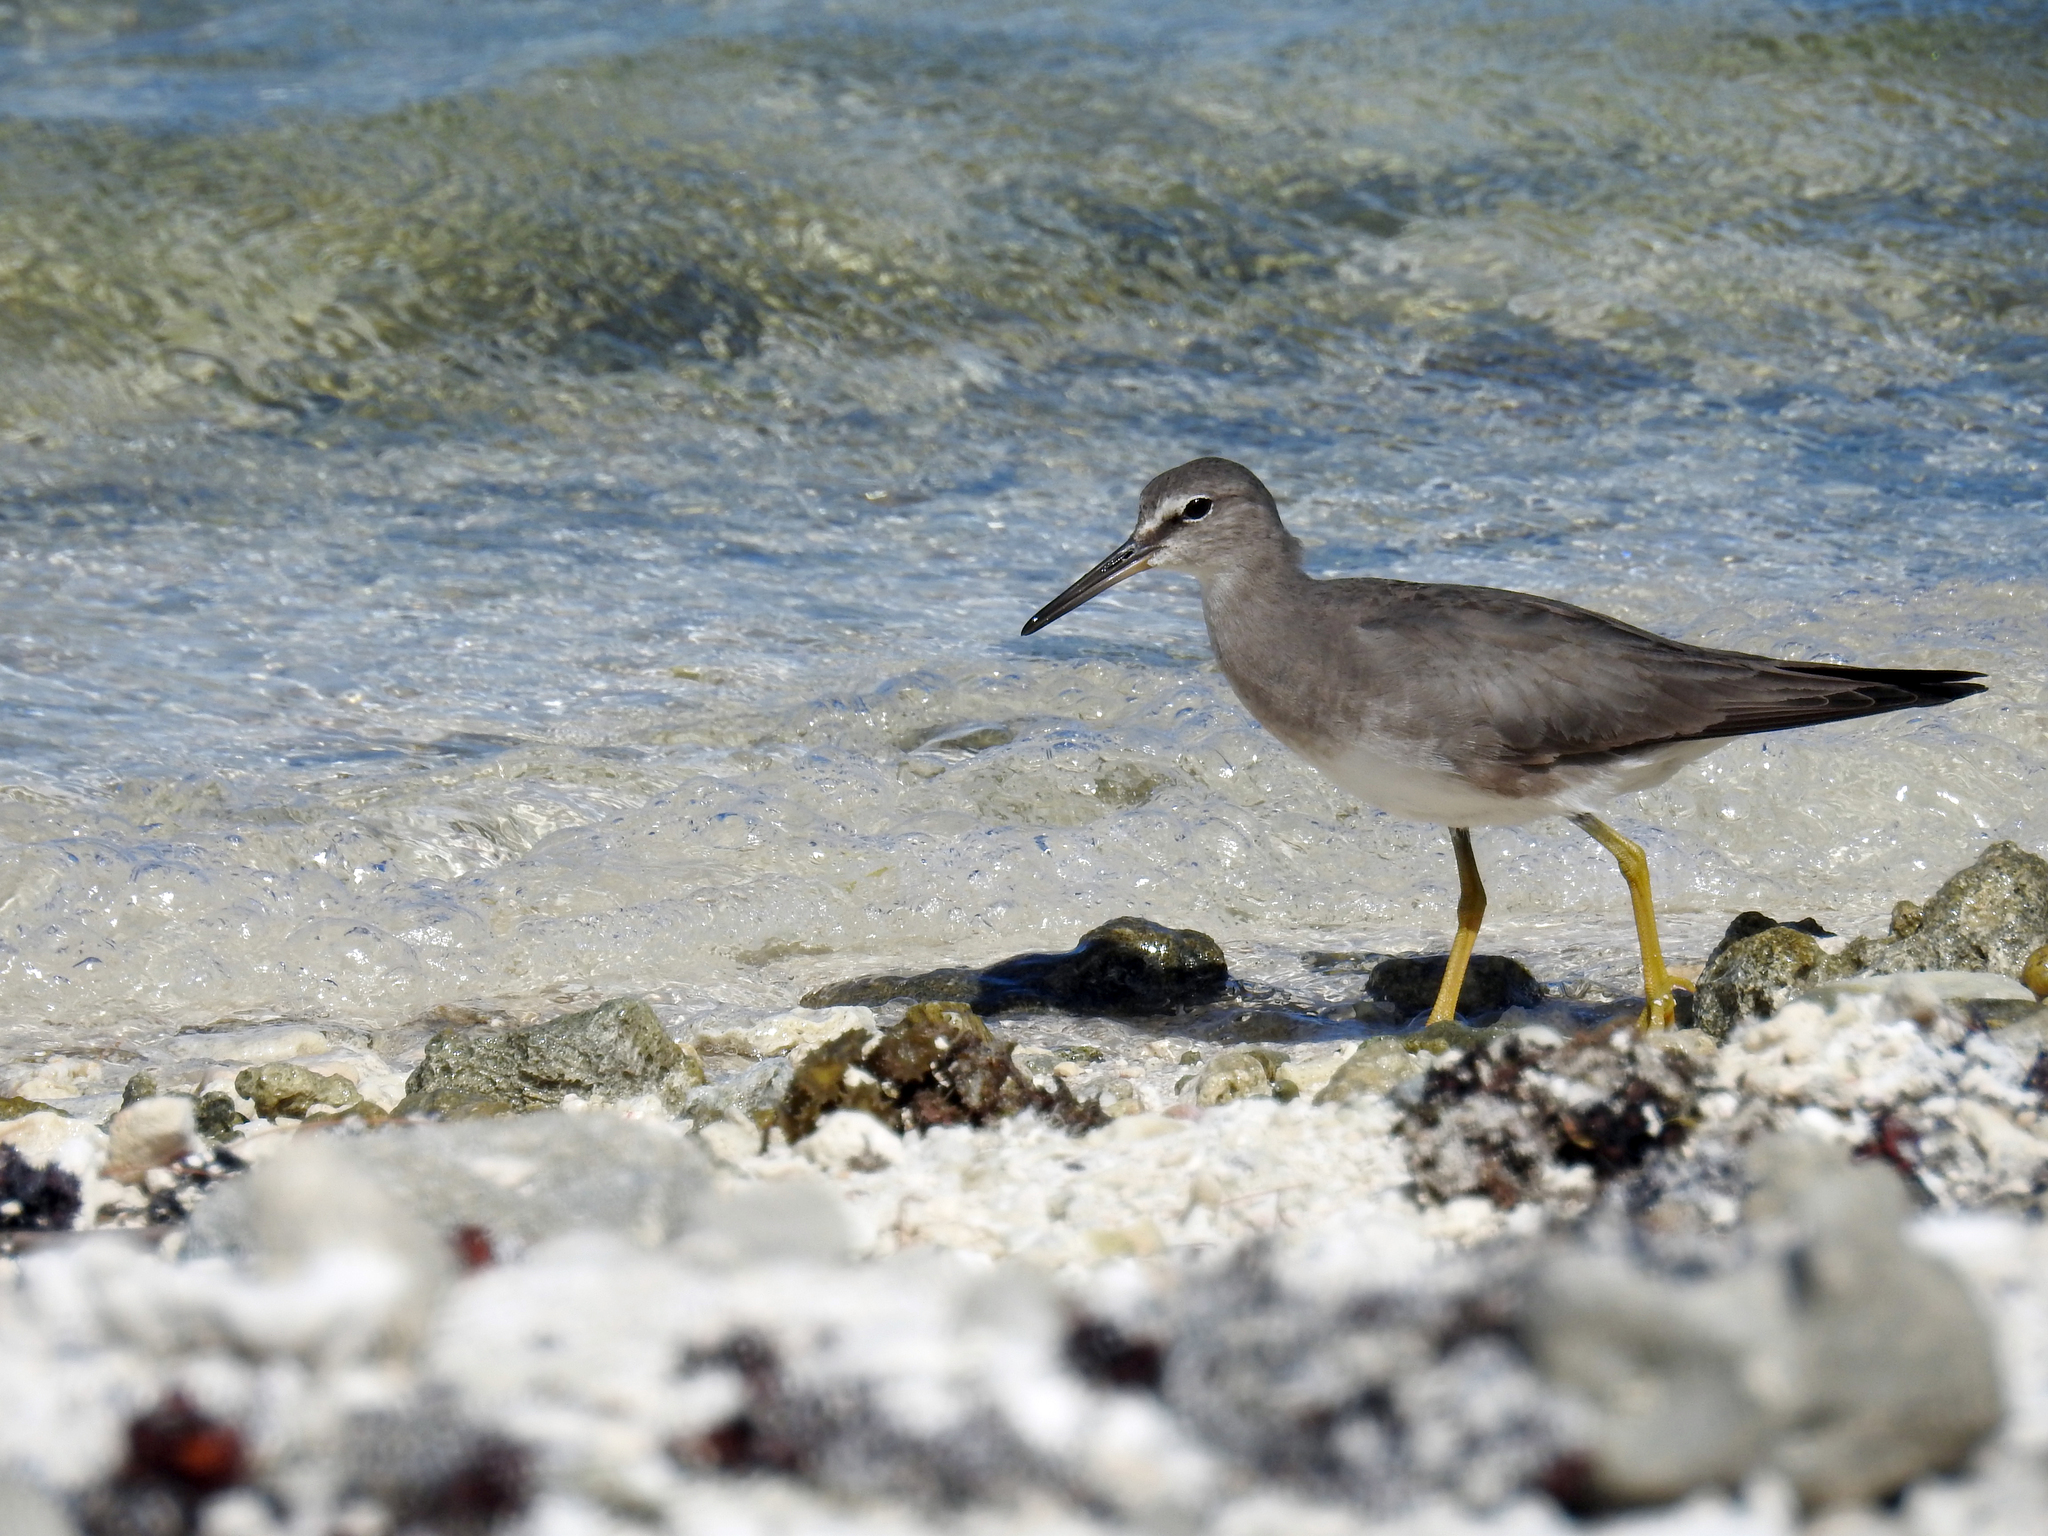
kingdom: Animalia
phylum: Chordata
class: Aves
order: Charadriiformes
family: Scolopacidae
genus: Tringa
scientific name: Tringa incana
